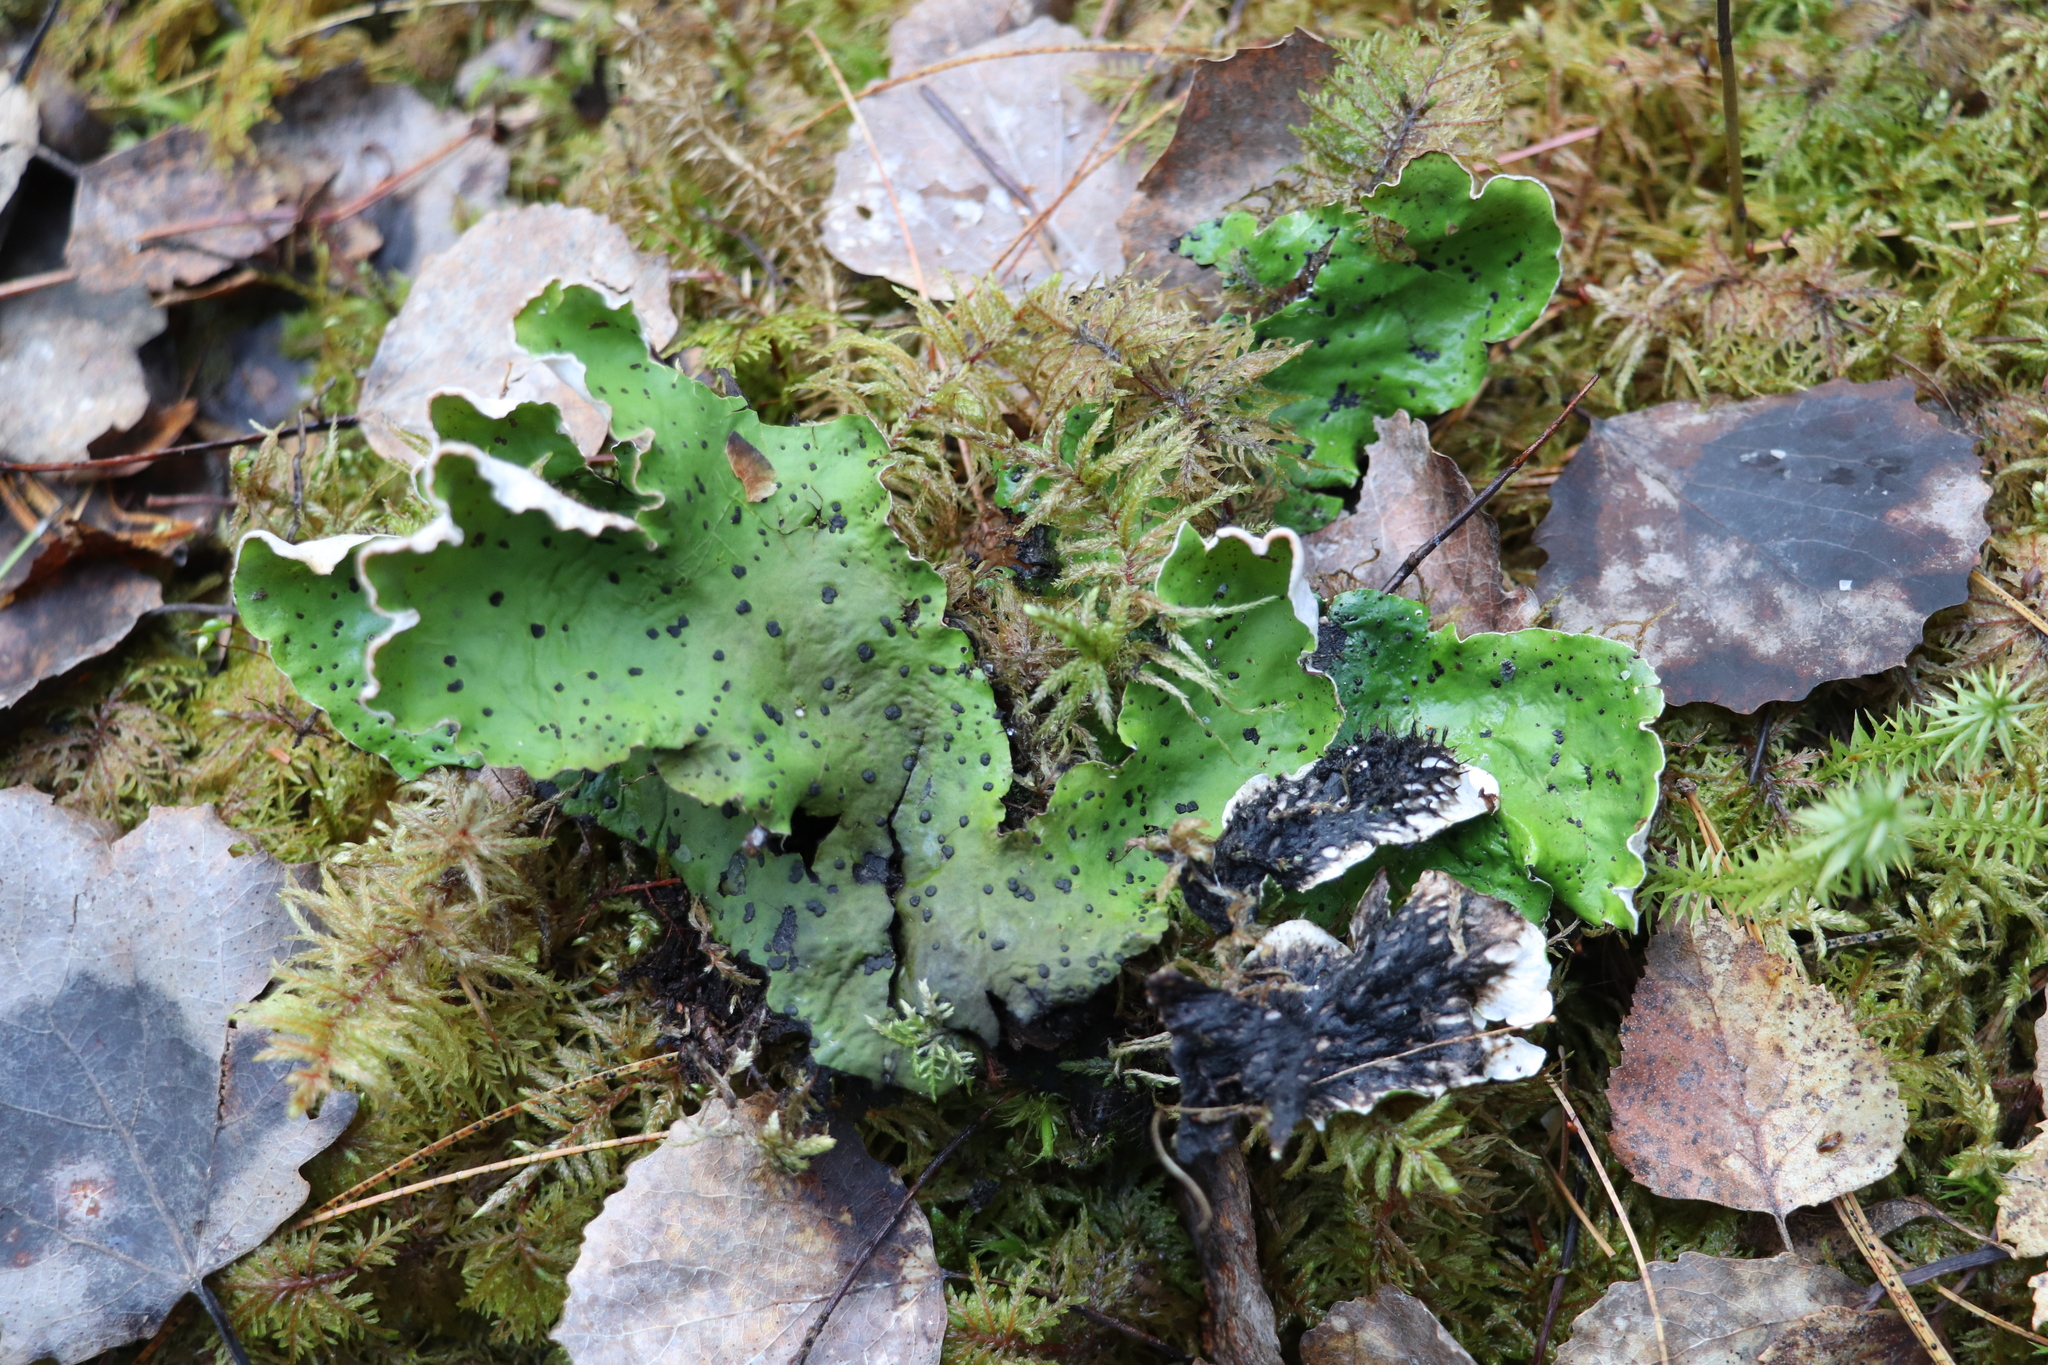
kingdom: Fungi
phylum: Ascomycota
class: Lecanoromycetes
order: Peltigerales
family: Peltigeraceae
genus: Peltigera
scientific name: Peltigera aphthosa
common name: Common freckle pelt lichen
